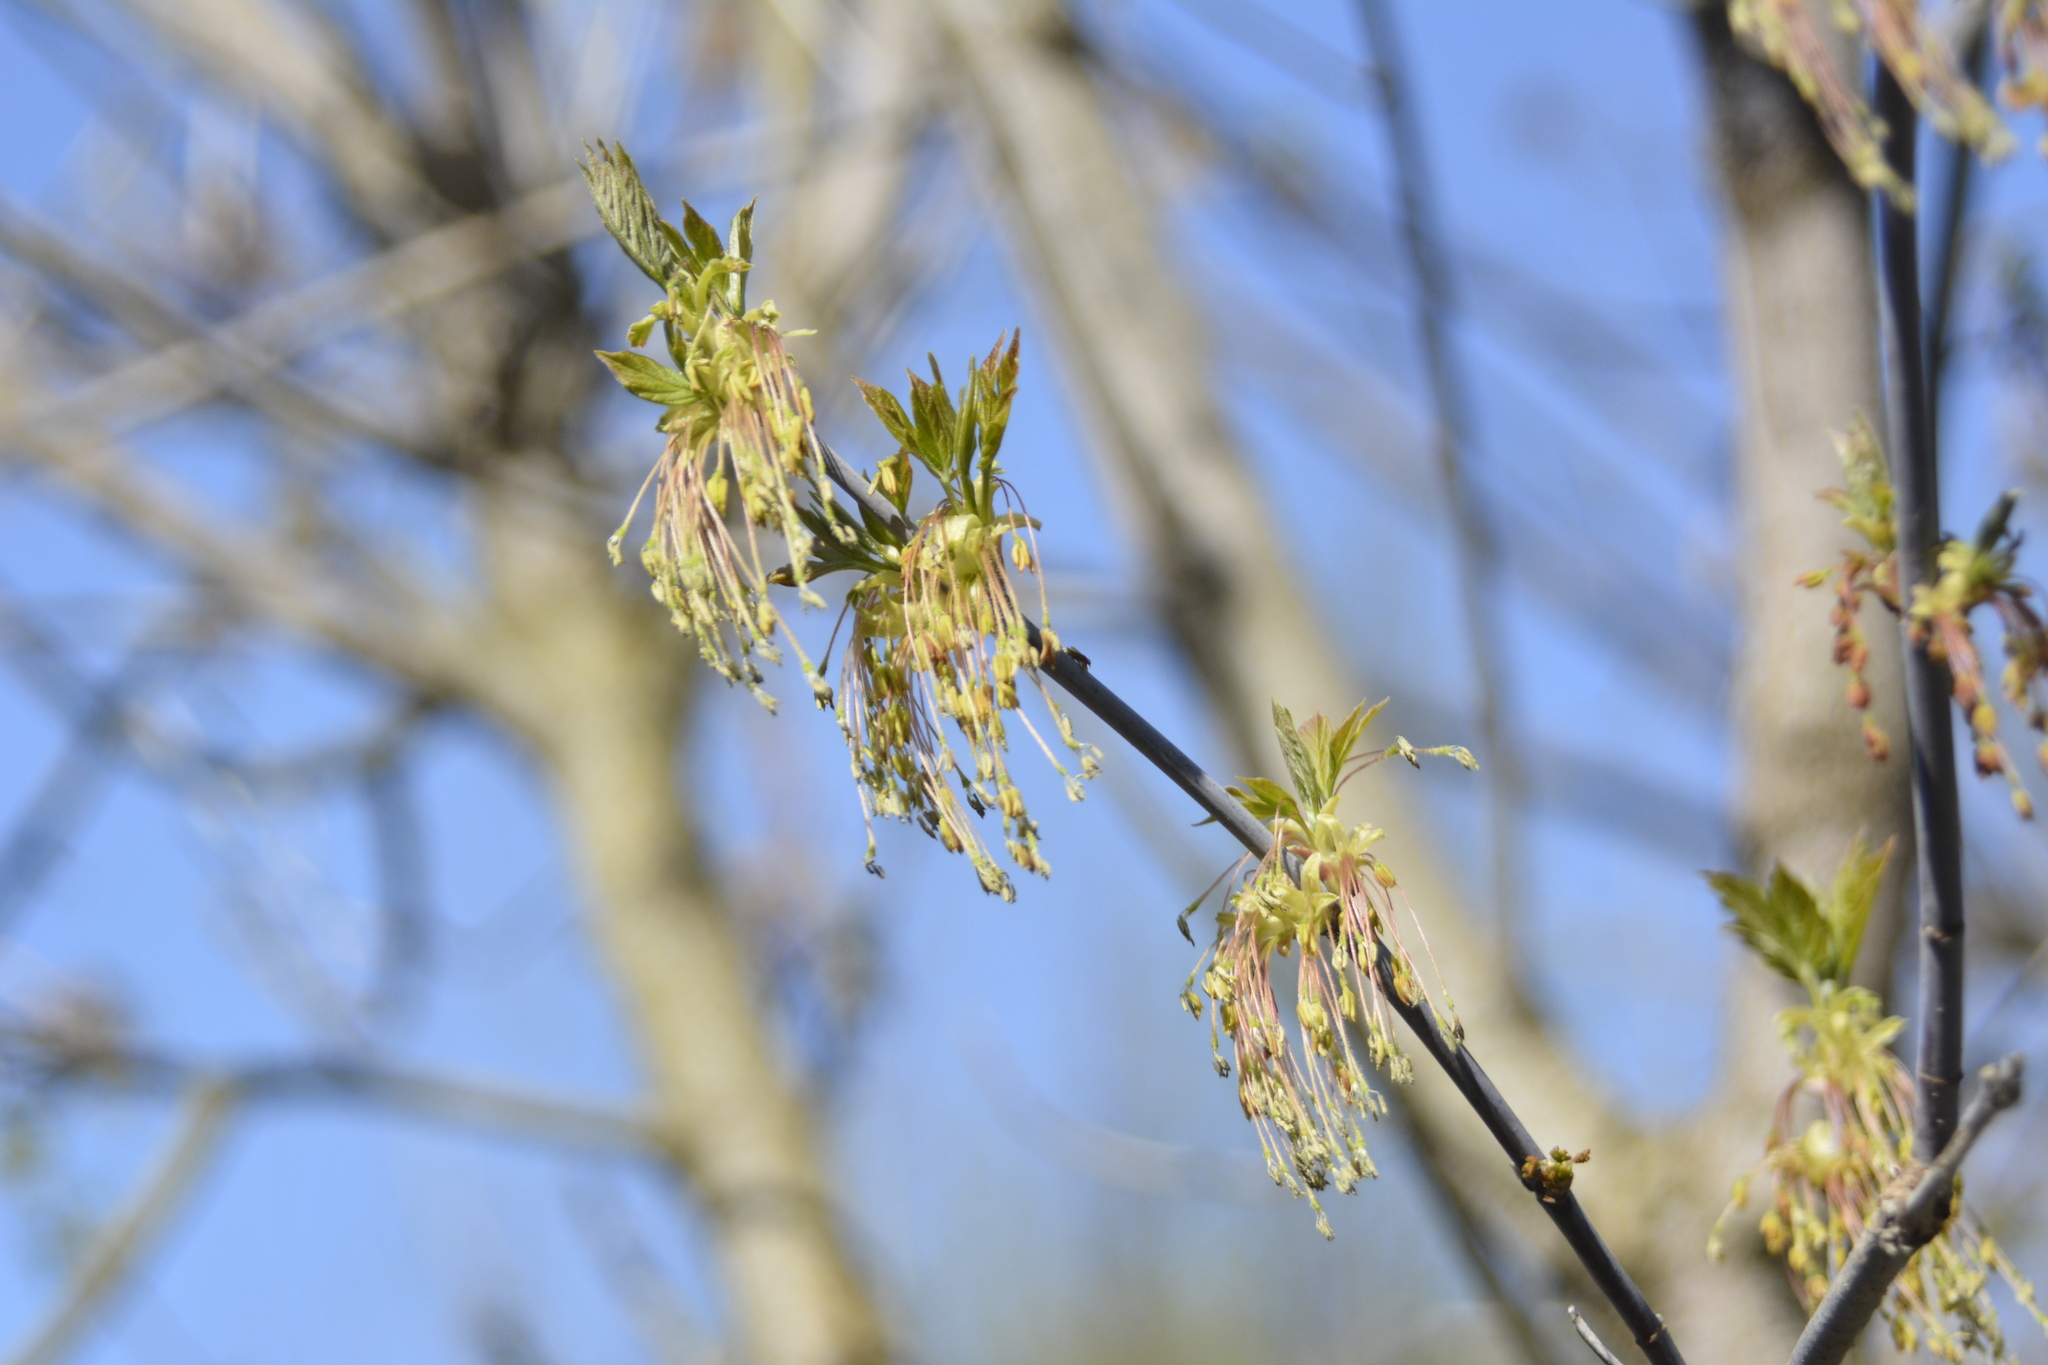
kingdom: Plantae
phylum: Tracheophyta
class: Magnoliopsida
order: Sapindales
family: Sapindaceae
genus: Acer
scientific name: Acer negundo
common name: Ashleaf maple
